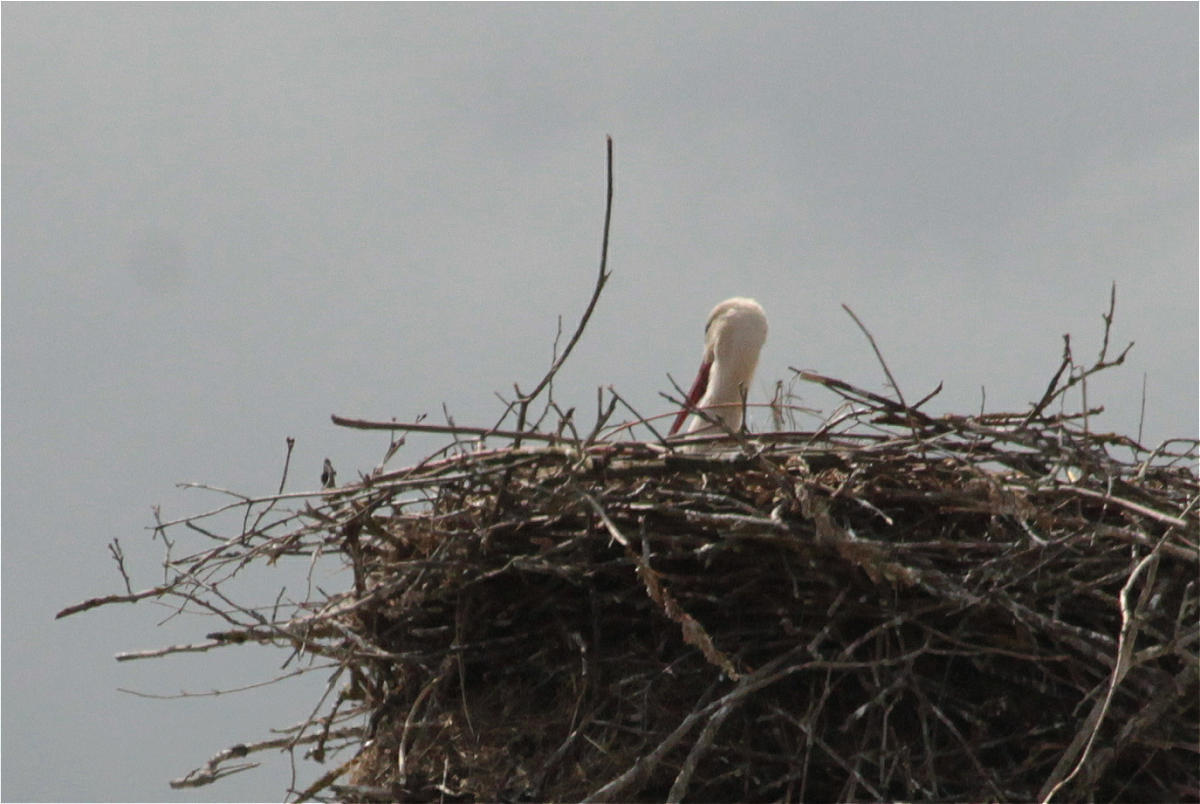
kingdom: Animalia
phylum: Chordata
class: Aves
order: Ciconiiformes
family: Ciconiidae
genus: Ciconia
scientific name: Ciconia ciconia
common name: White stork
